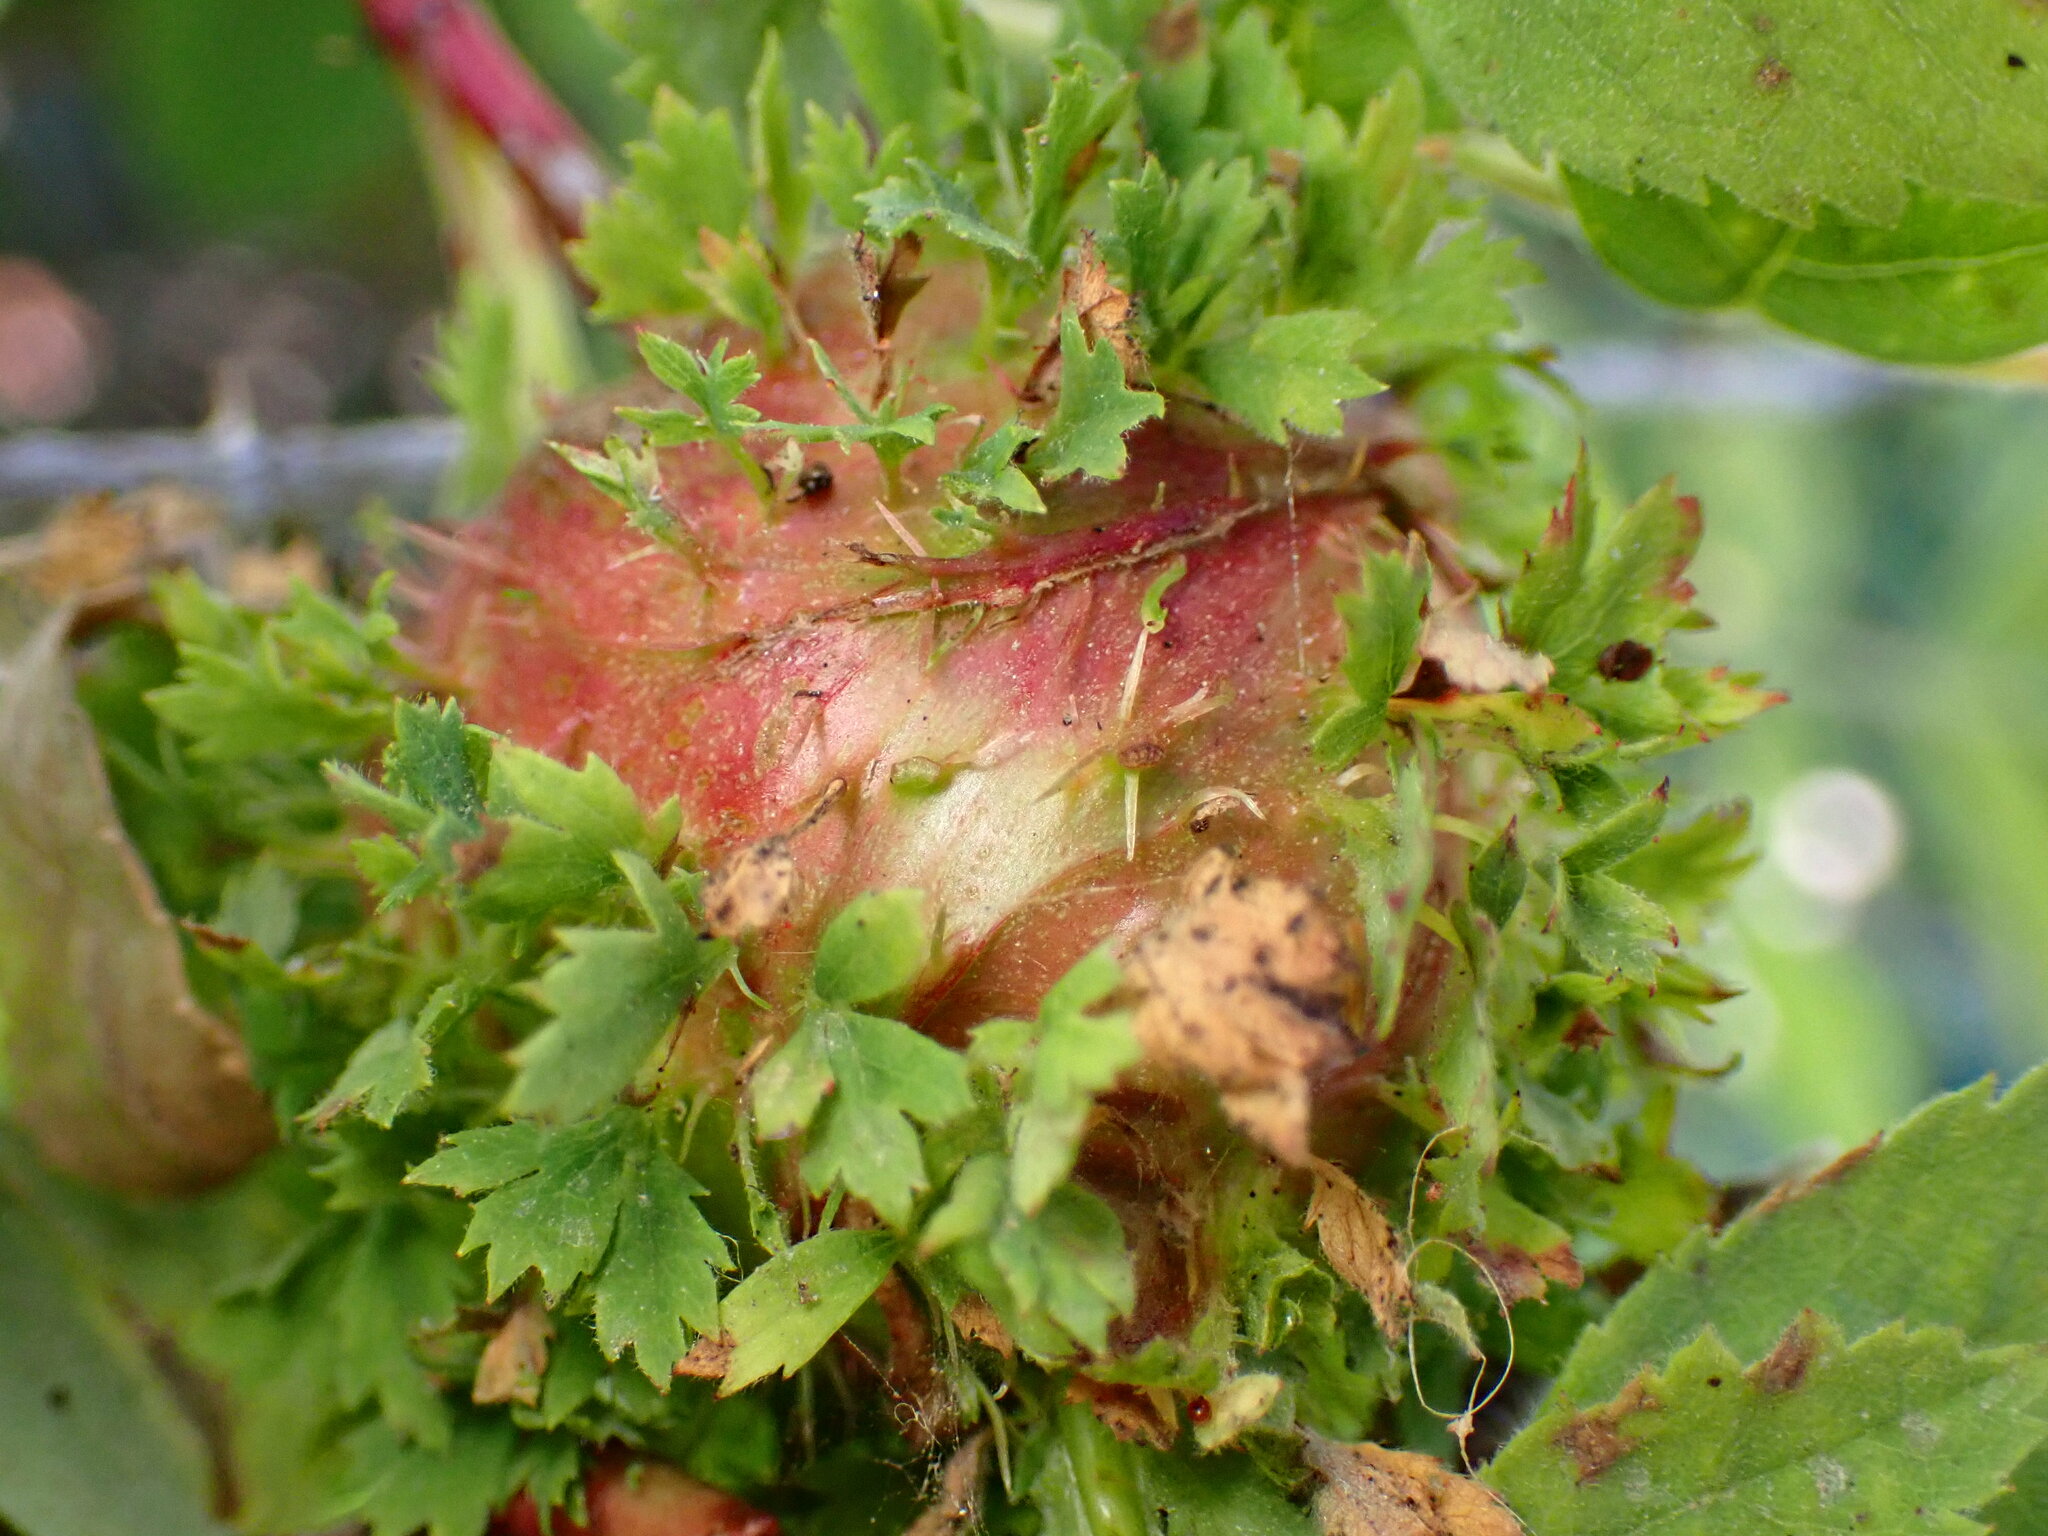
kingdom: Animalia
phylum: Arthropoda
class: Insecta
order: Hymenoptera
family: Cynipidae
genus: Diplolepis
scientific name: Diplolepis californica
